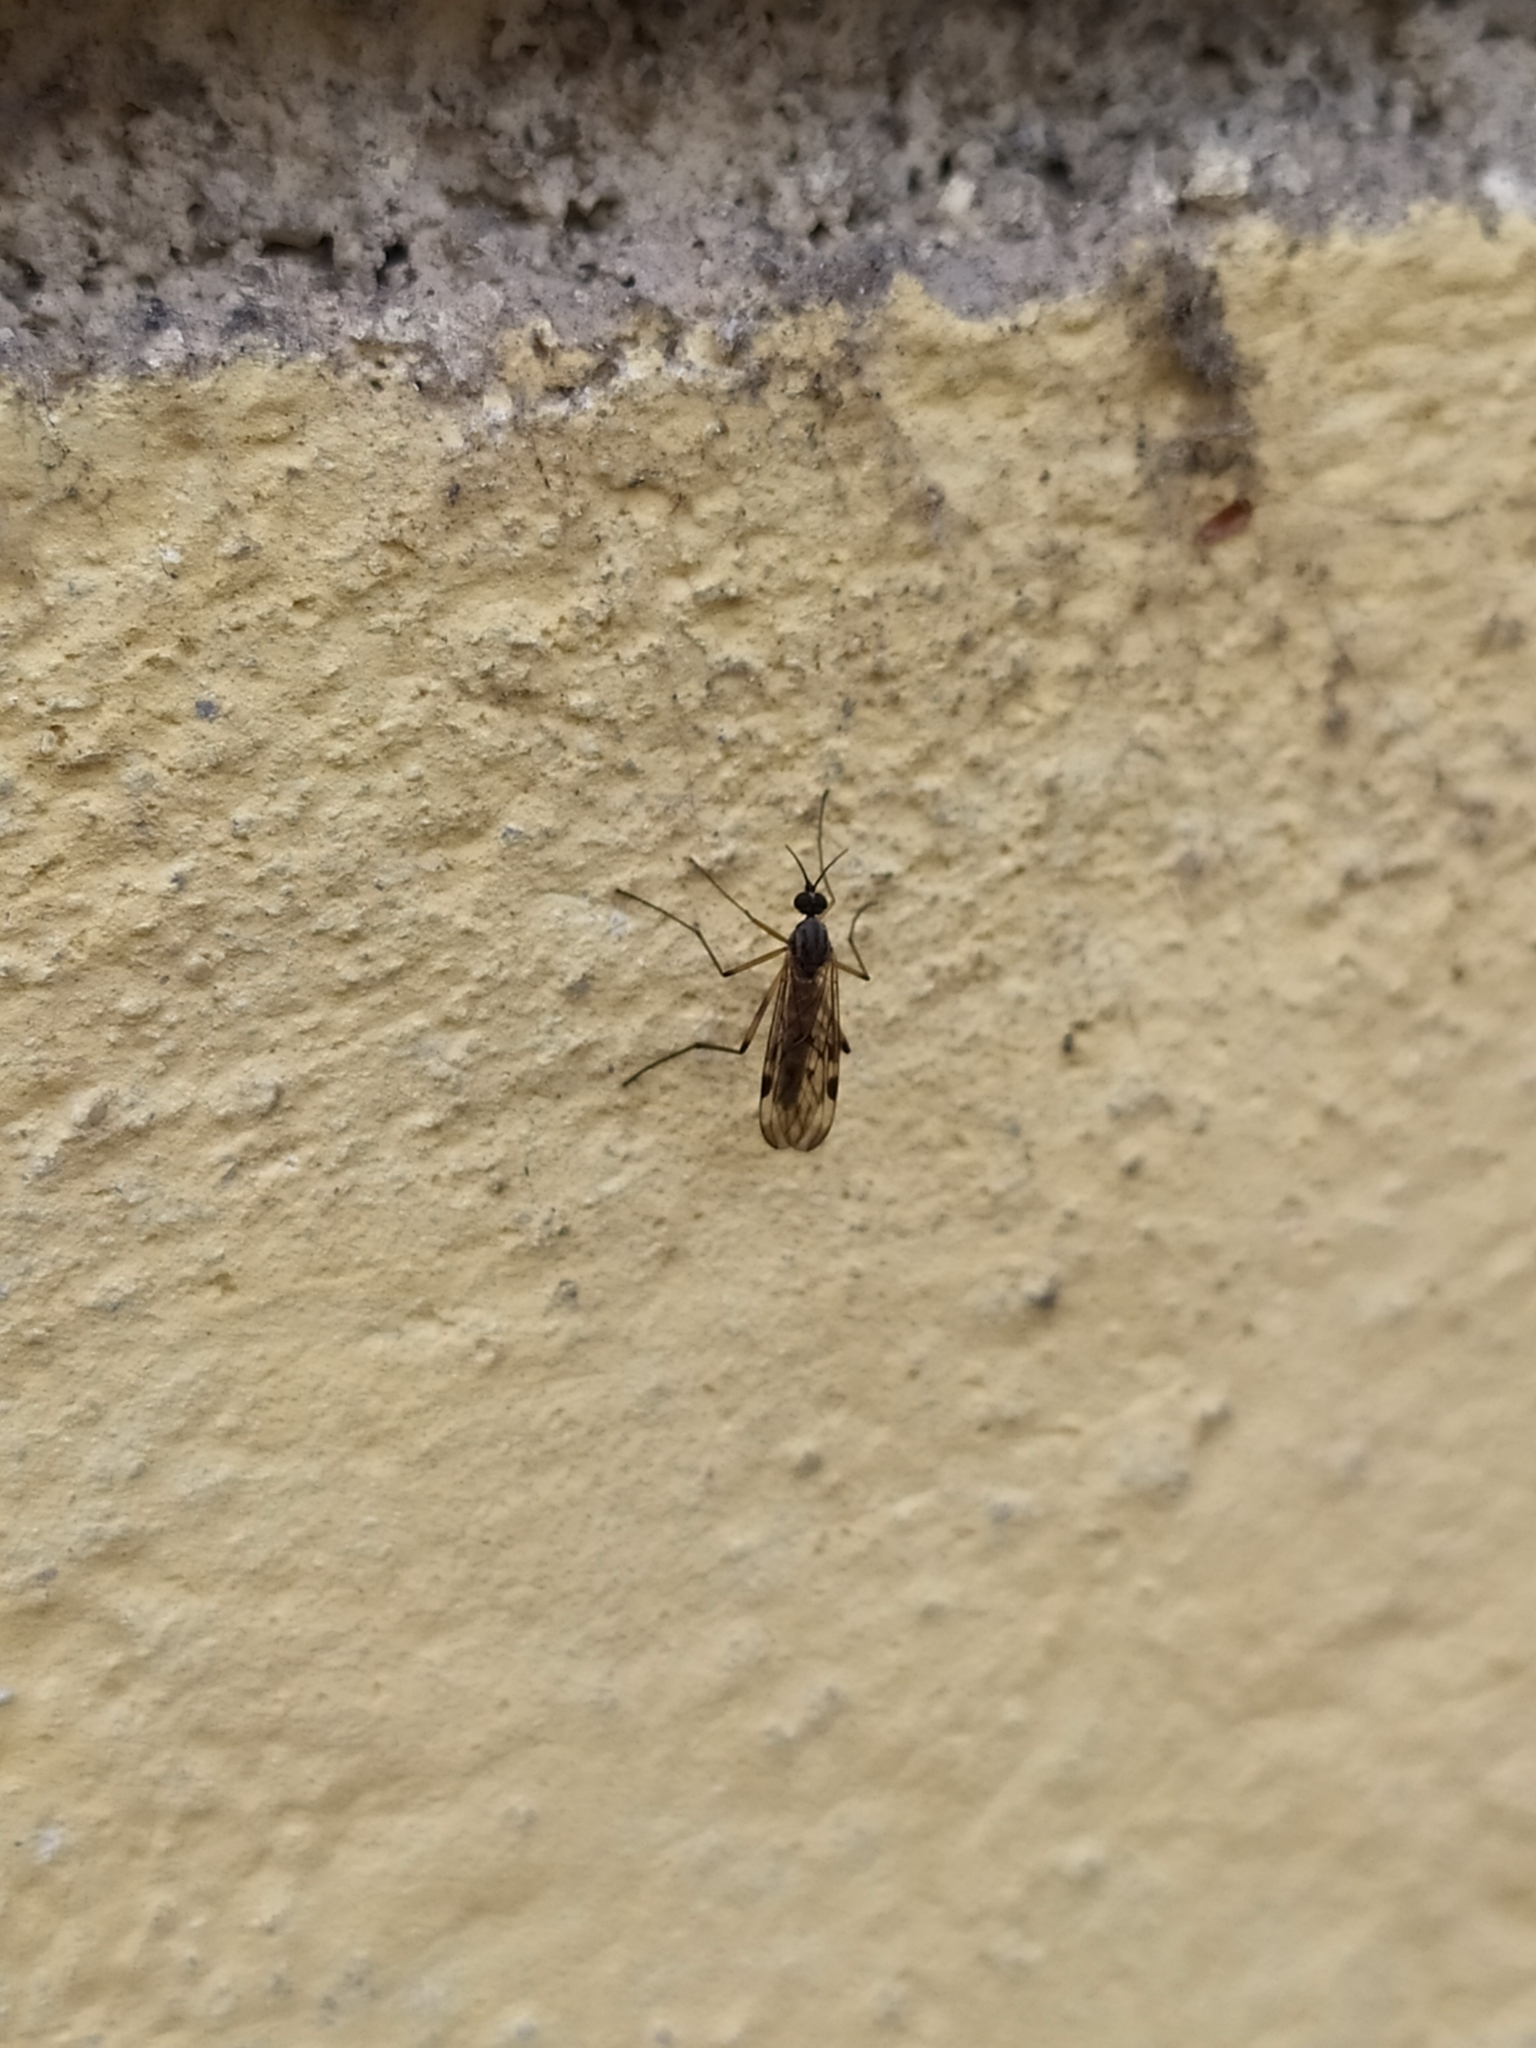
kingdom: Animalia
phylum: Arthropoda
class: Insecta
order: Diptera
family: Anisopodidae
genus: Sylvicola
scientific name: Sylvicola cinctus
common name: Wood gnat
